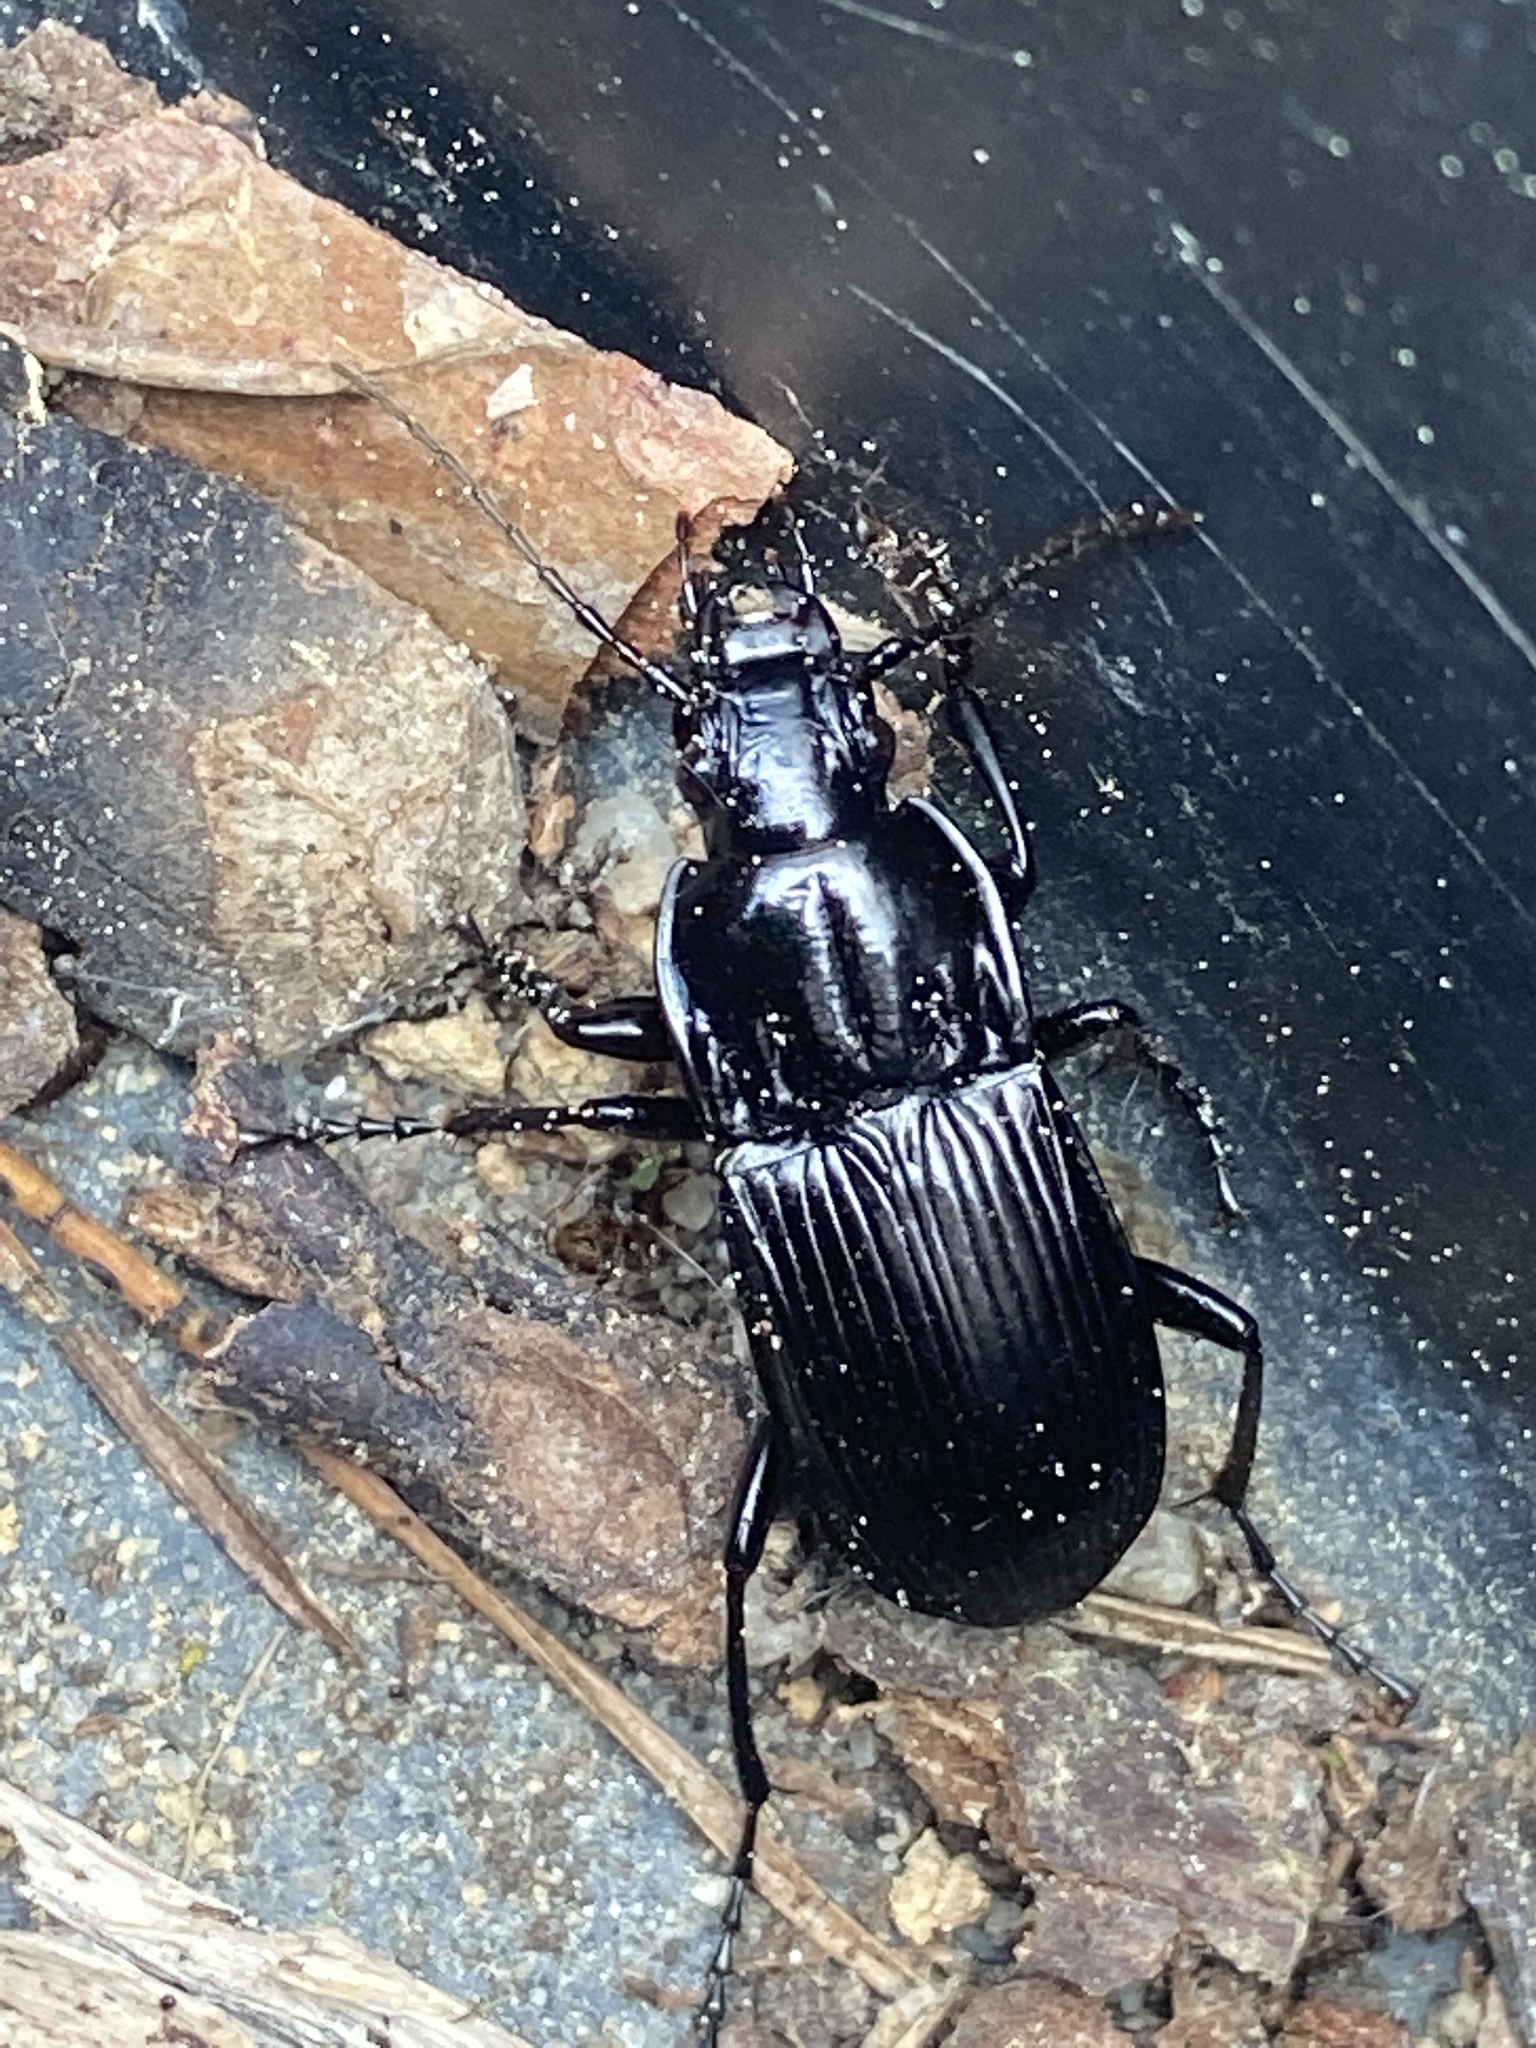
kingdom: Animalia
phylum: Arthropoda
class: Insecta
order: Coleoptera
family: Carabidae
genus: Abax
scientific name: Abax parallelepipedus
